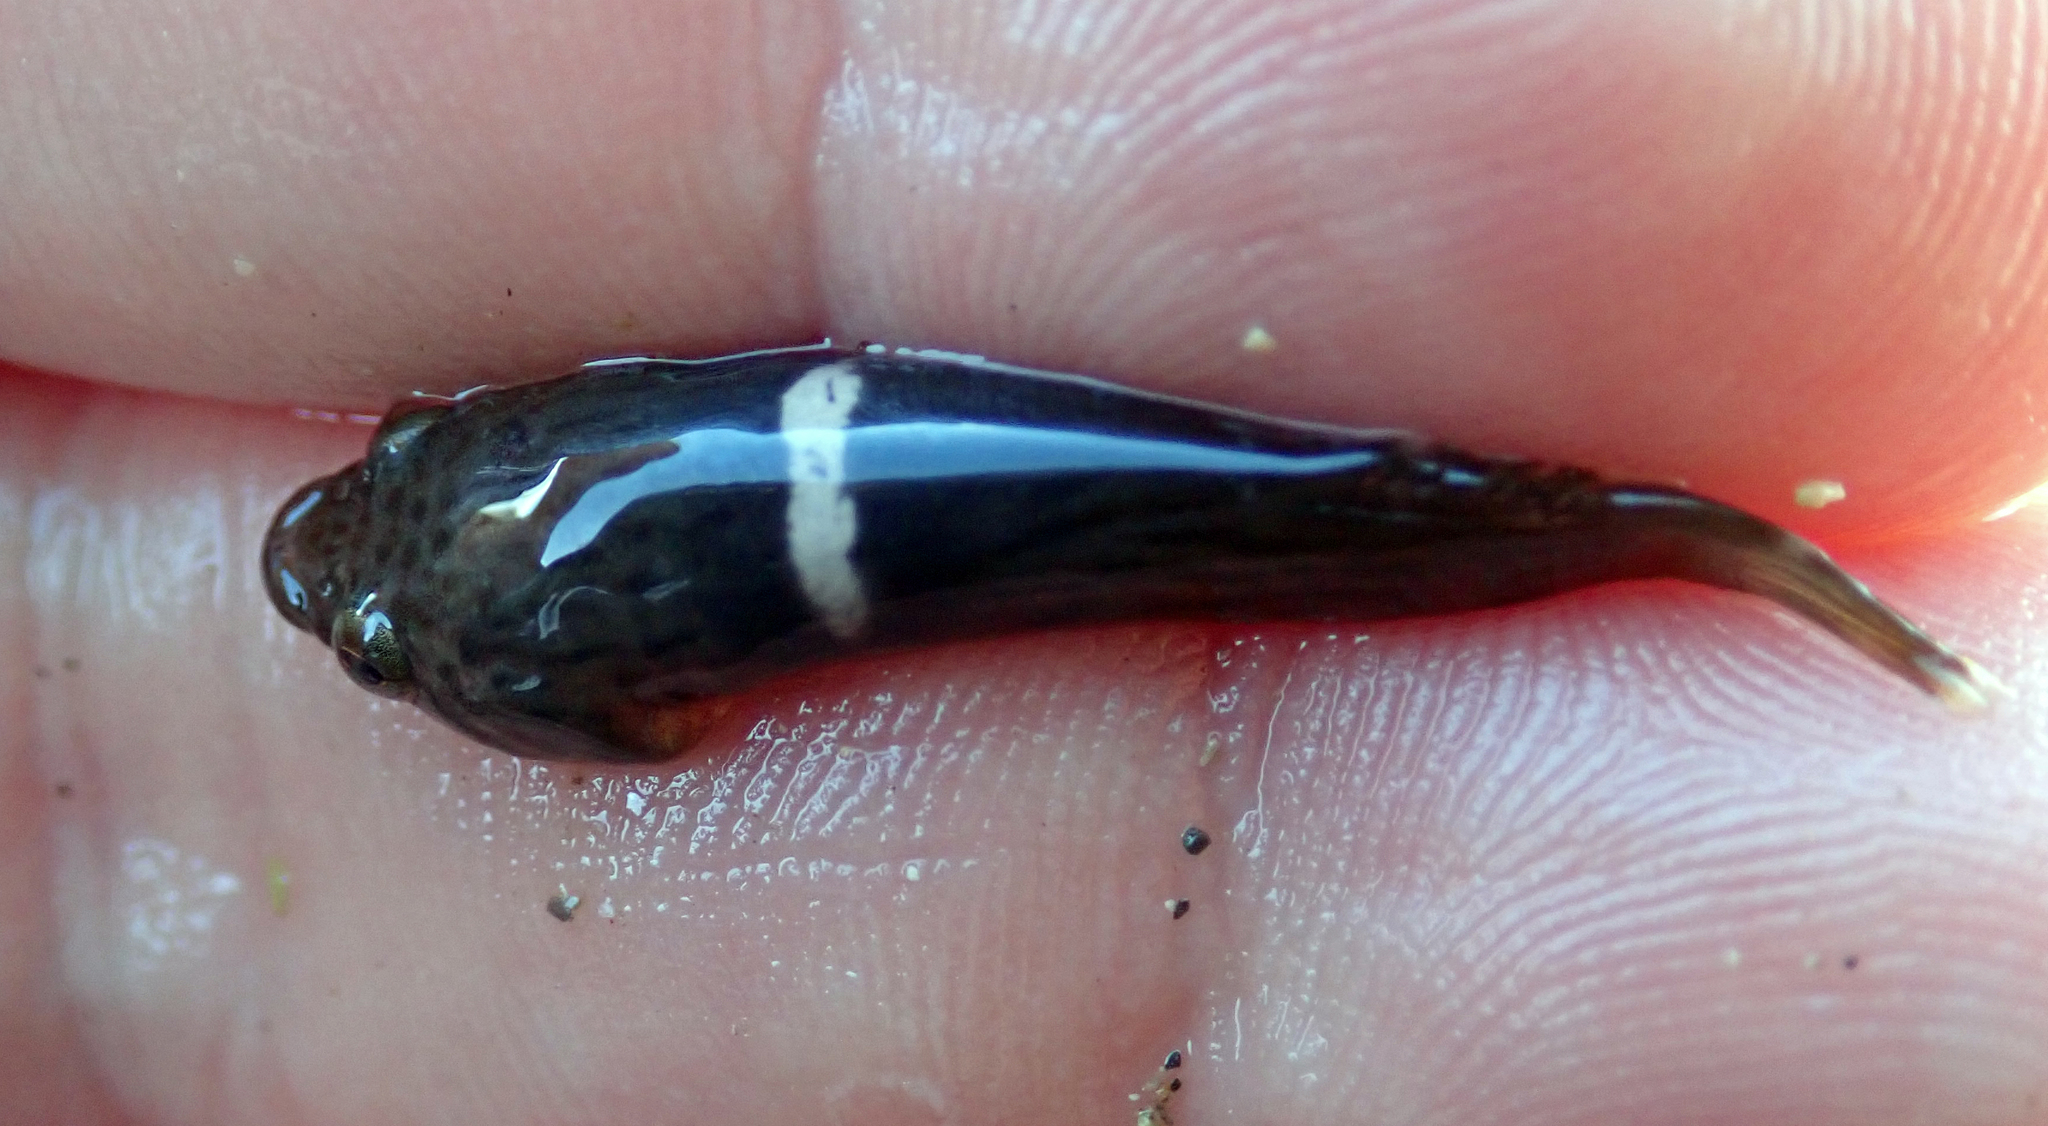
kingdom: Animalia
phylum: Chordata
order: Gobiesociformes
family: Gobiesocidae
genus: Trachelochismus
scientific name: Trachelochismus pinnulatus
